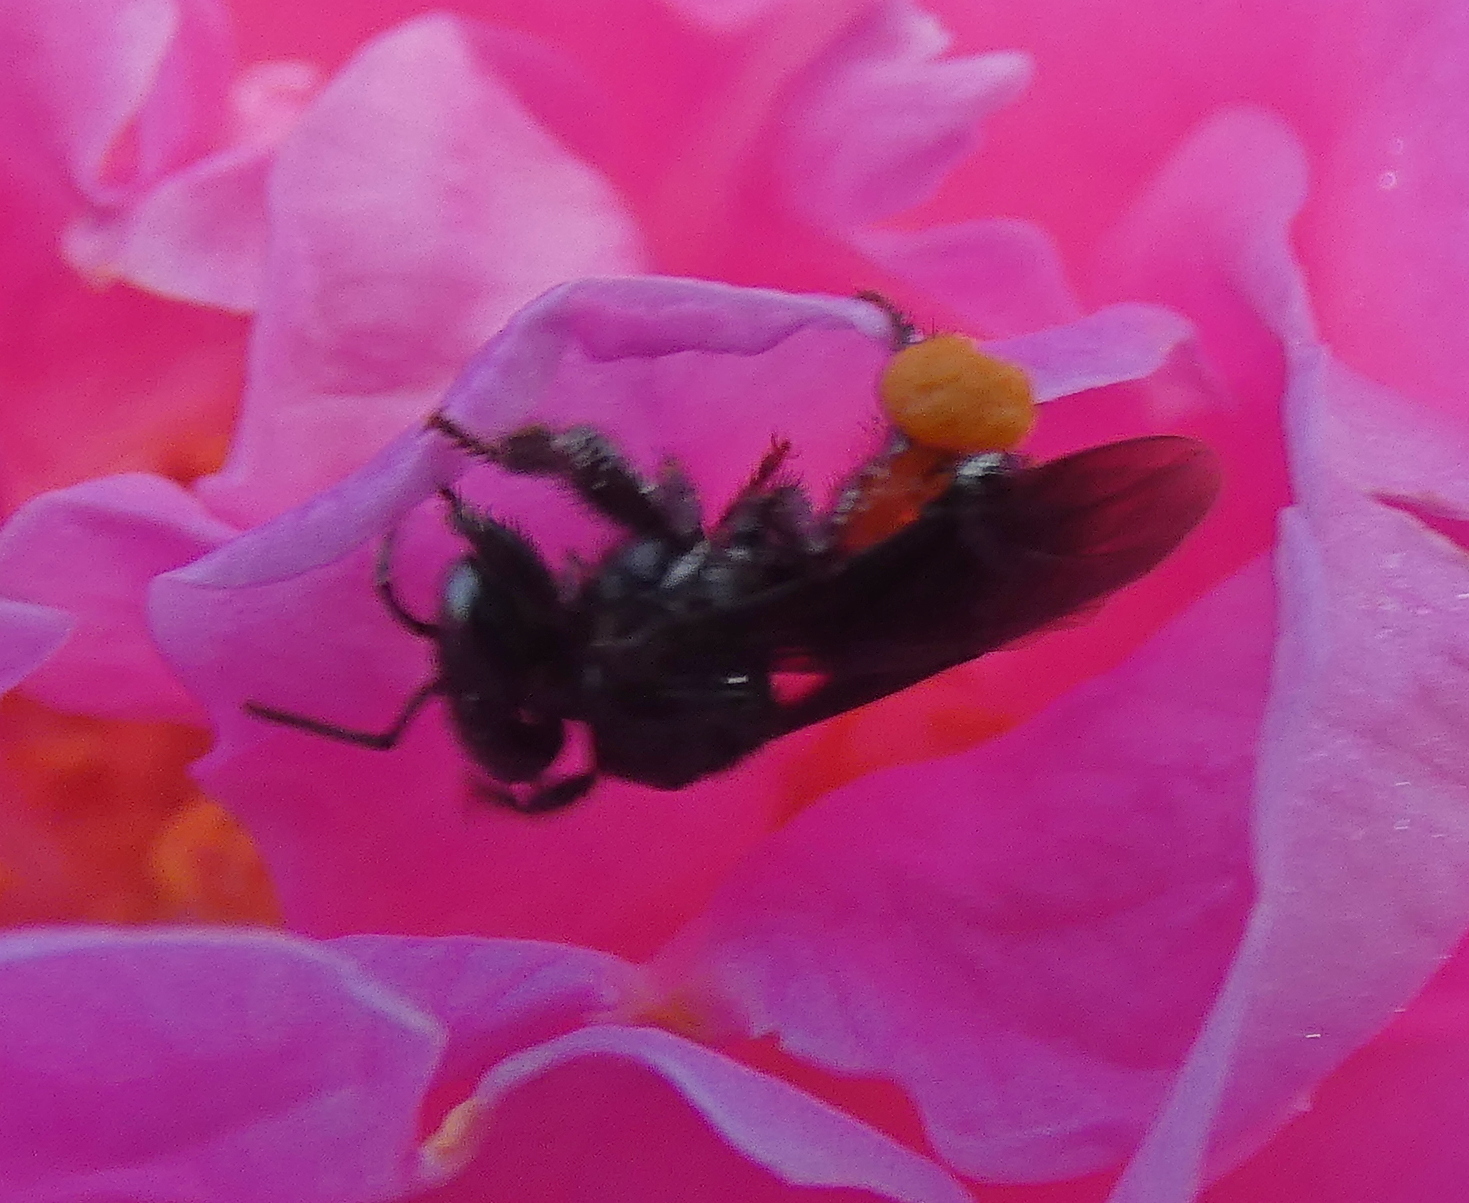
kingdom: Animalia
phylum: Arthropoda
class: Insecta
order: Hymenoptera
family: Apidae
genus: Trigona
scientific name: Trigona spinipes
